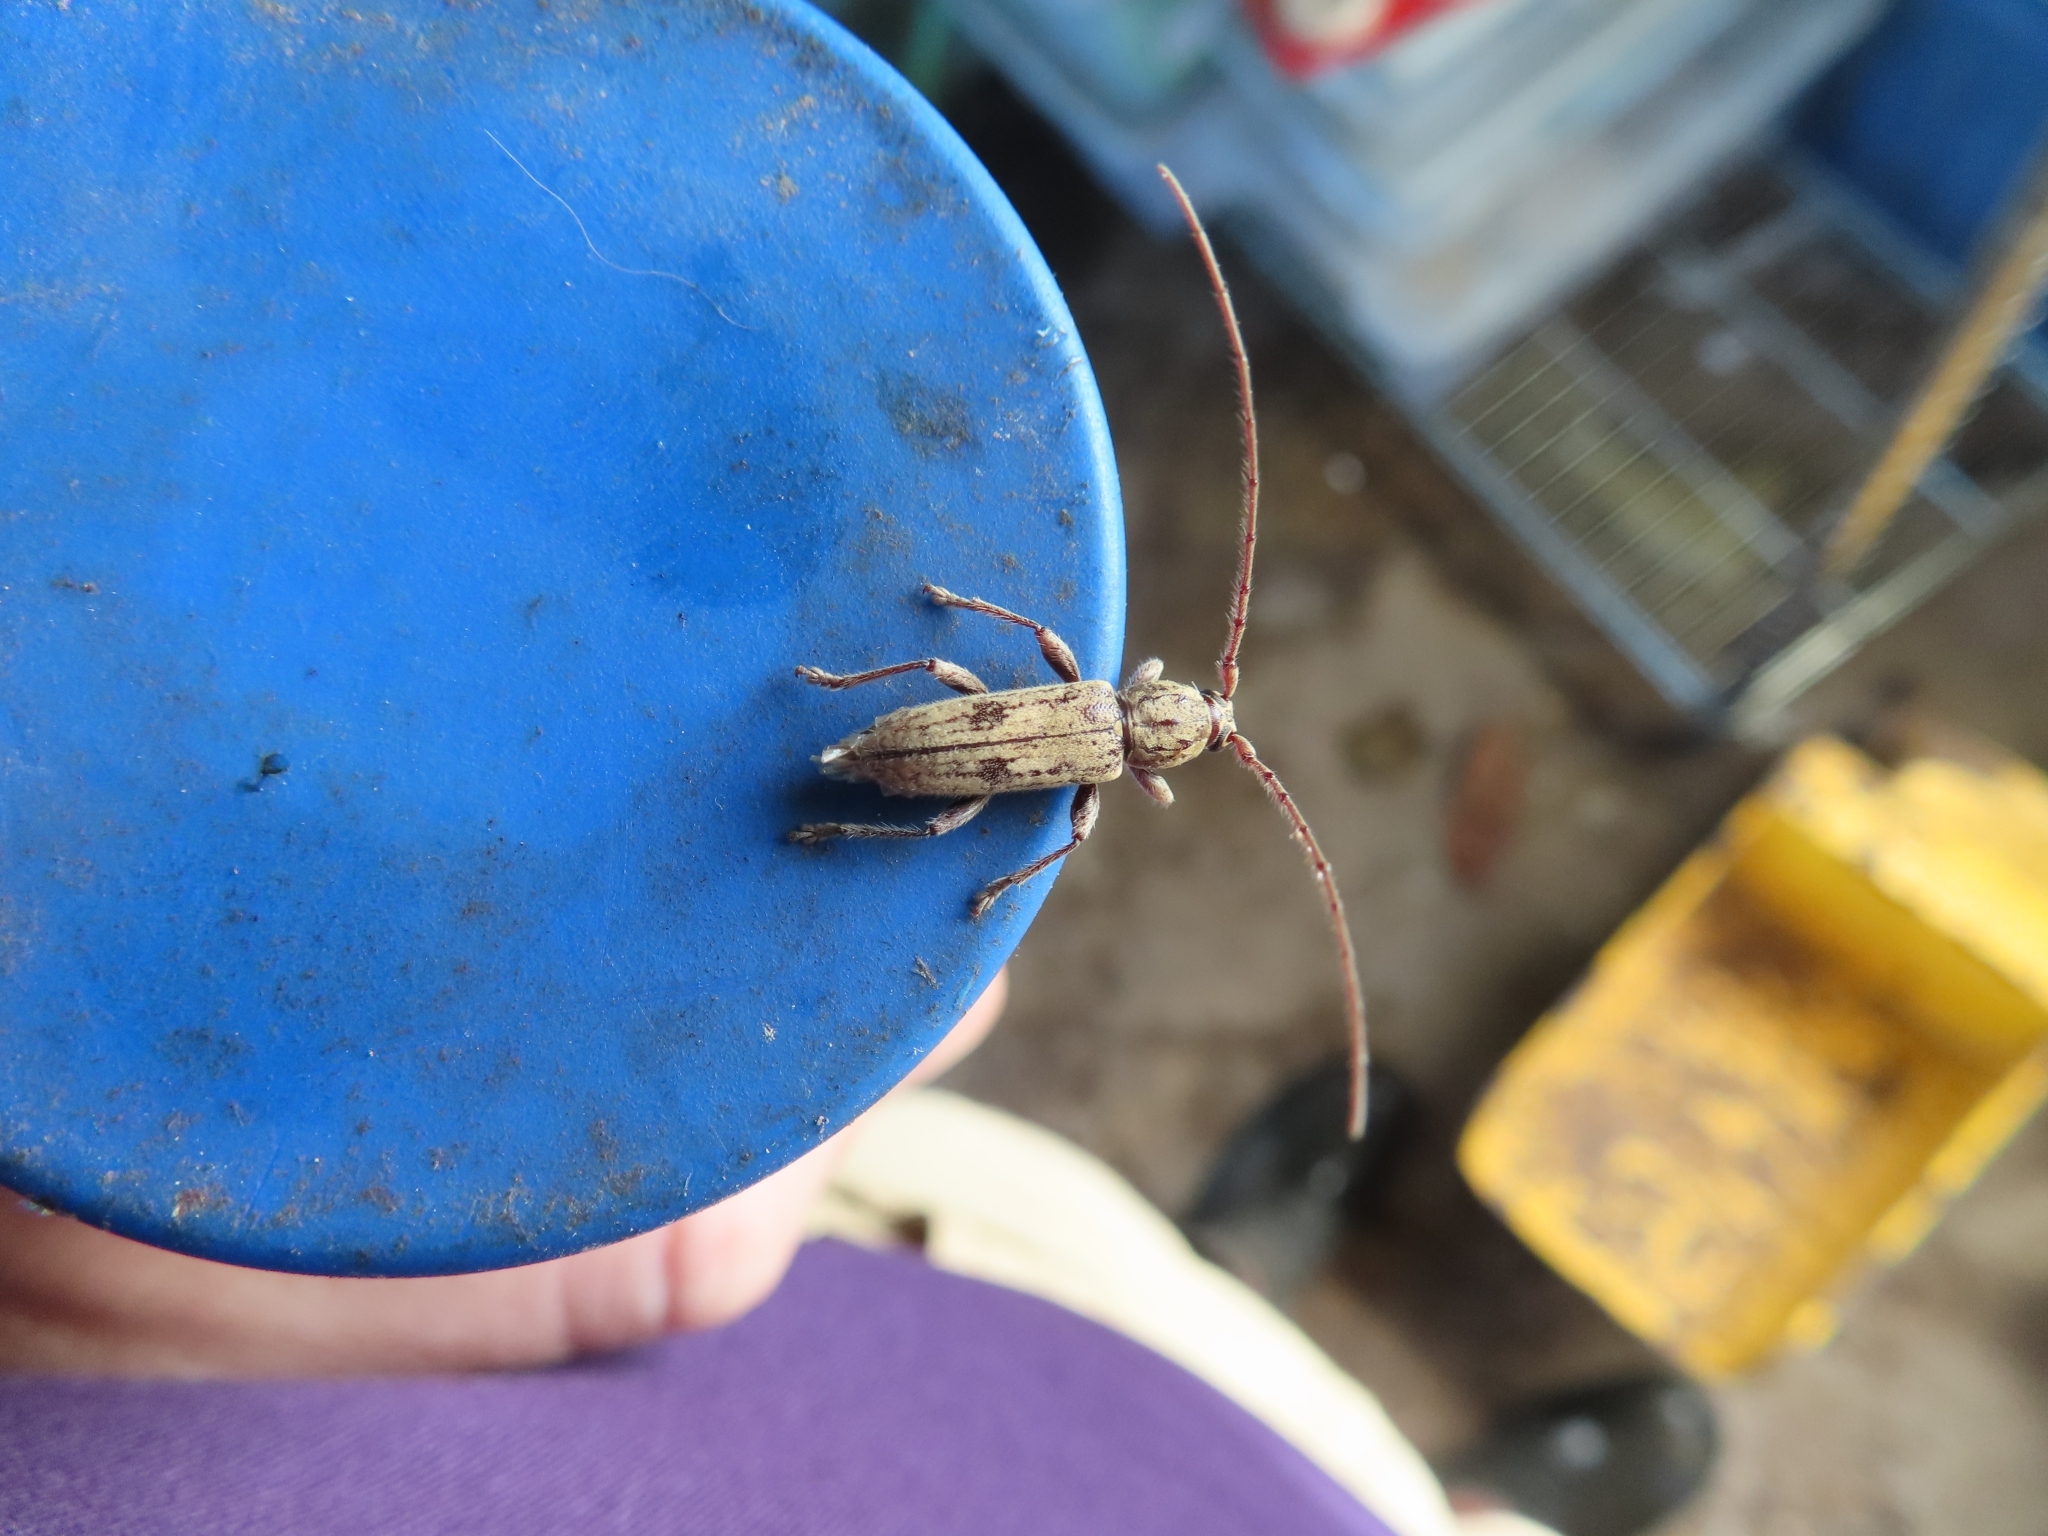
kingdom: Animalia
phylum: Arthropoda
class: Insecta
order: Coleoptera
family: Cerambycidae
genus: Anelaphus
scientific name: Anelaphus nanus
